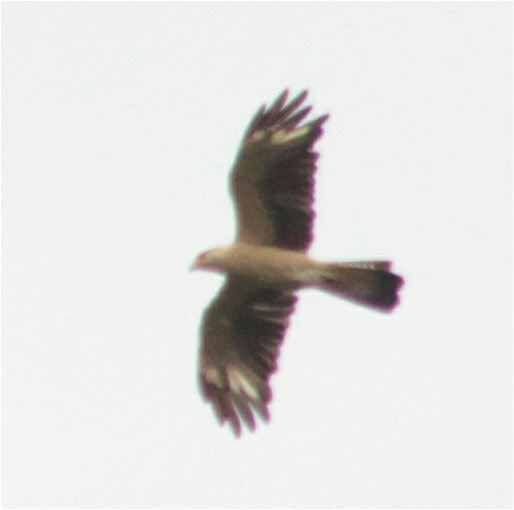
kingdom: Animalia
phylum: Chordata
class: Aves
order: Falconiformes
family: Falconidae
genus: Daptrius
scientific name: Daptrius
